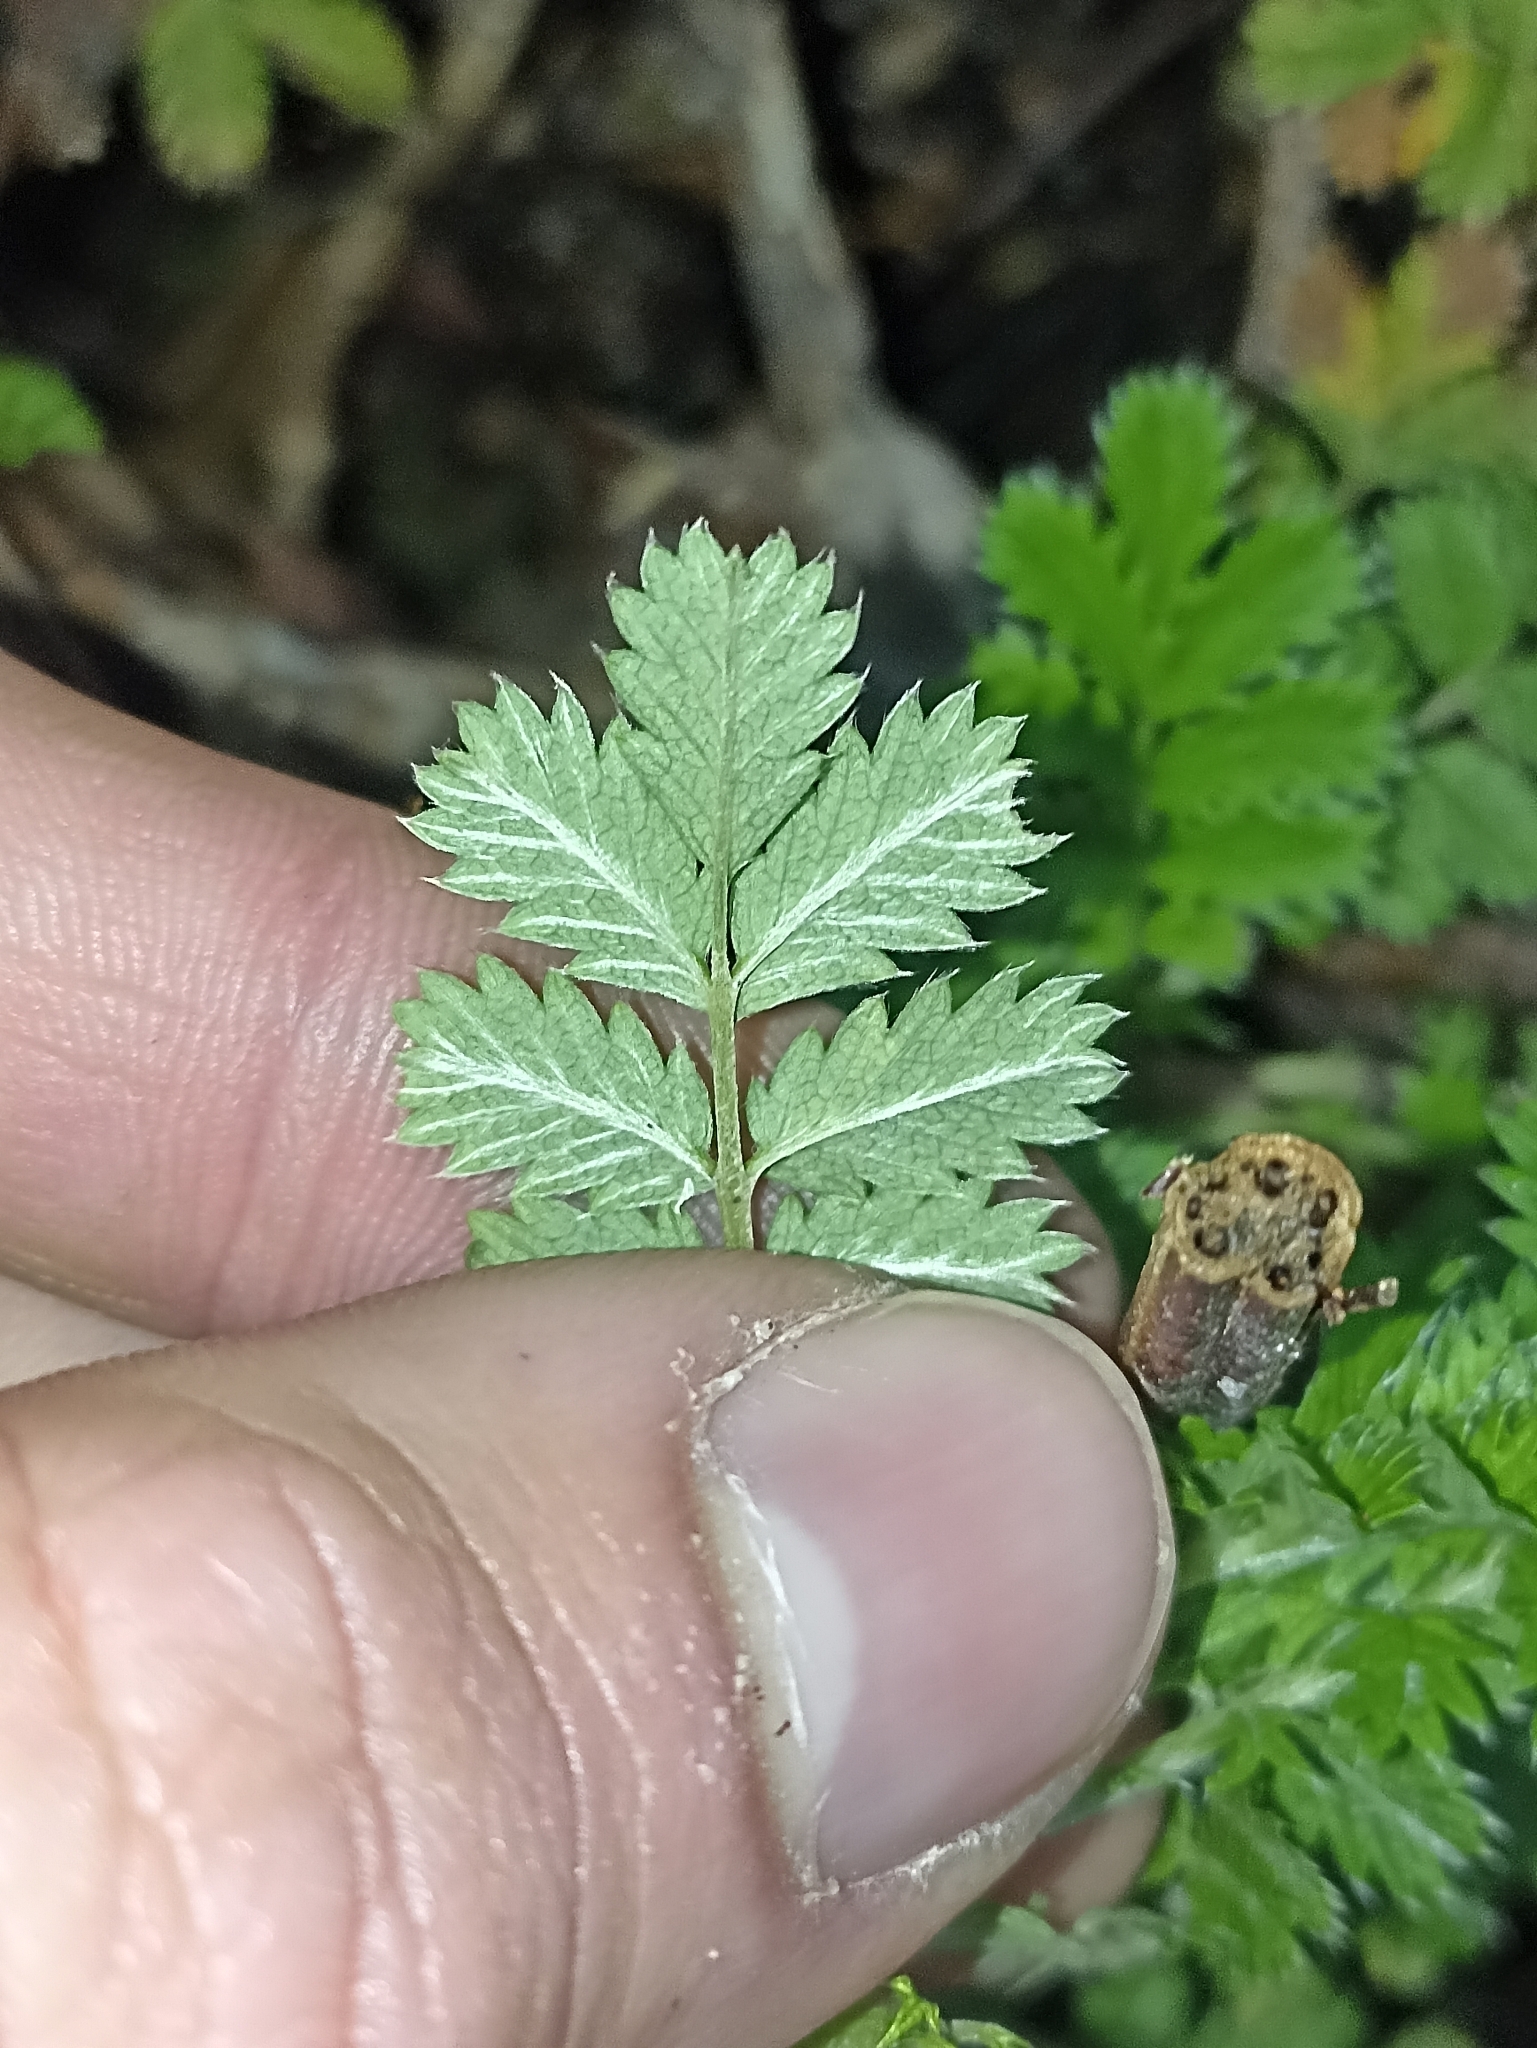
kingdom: Plantae
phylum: Tracheophyta
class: Magnoliopsida
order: Rosales
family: Rosaceae
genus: Acaena
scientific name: Acaena anserinifolia
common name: Bronze pirri-pirri-bur
